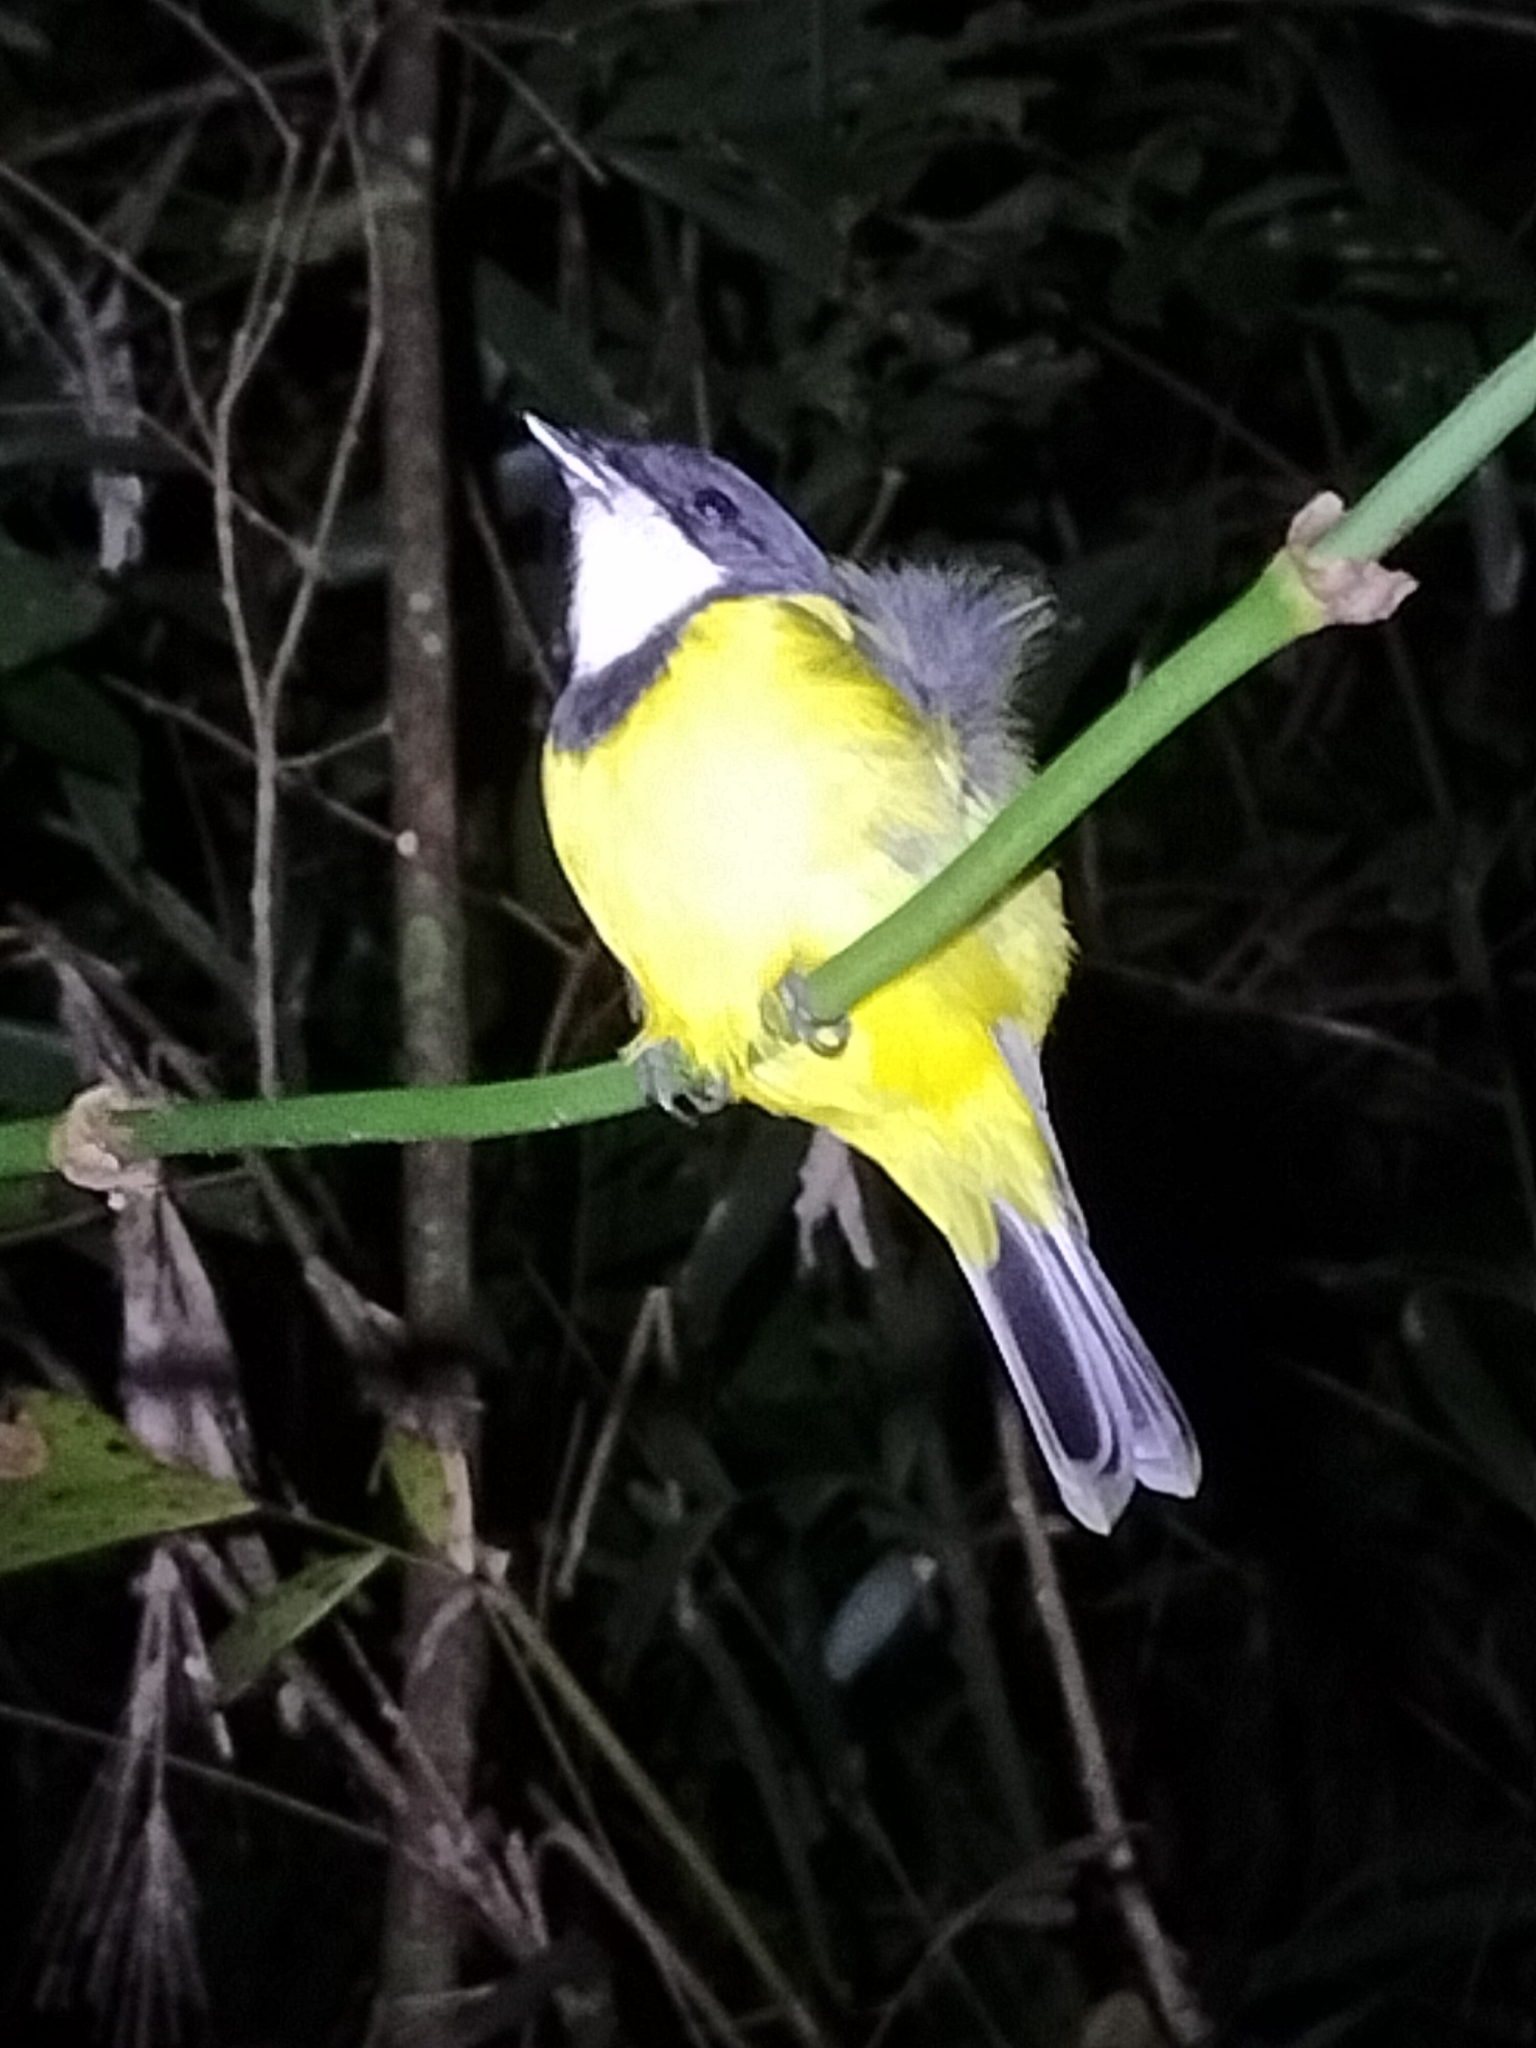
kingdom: Animalia
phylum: Chordata
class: Aves
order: Passeriformes
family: Pachycephalidae
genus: Pachycephala
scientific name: Pachycephala pectoralis
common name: Australian golden whistler
